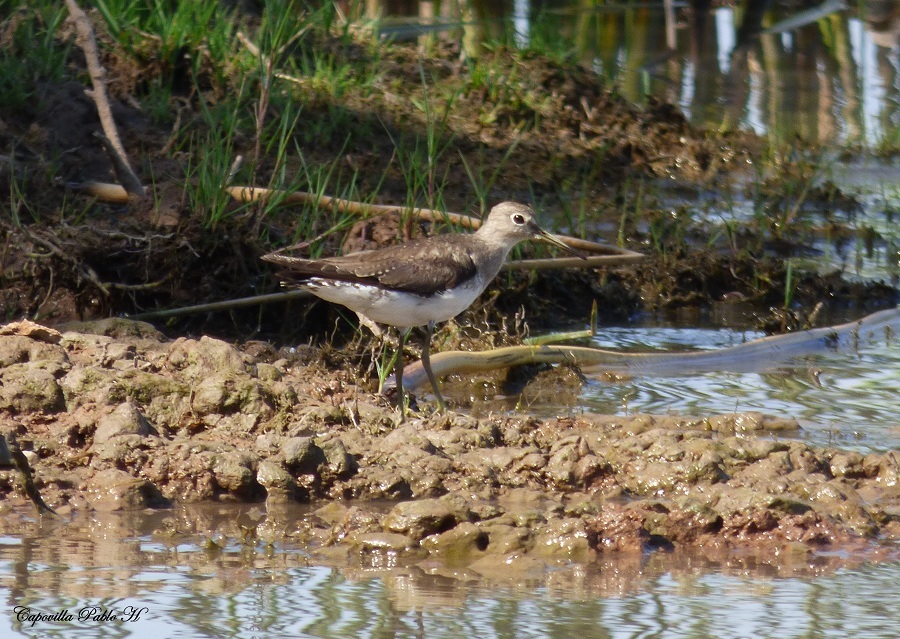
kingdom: Animalia
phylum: Chordata
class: Aves
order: Charadriiformes
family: Scolopacidae
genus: Tringa
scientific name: Tringa solitaria
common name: Solitary sandpiper
